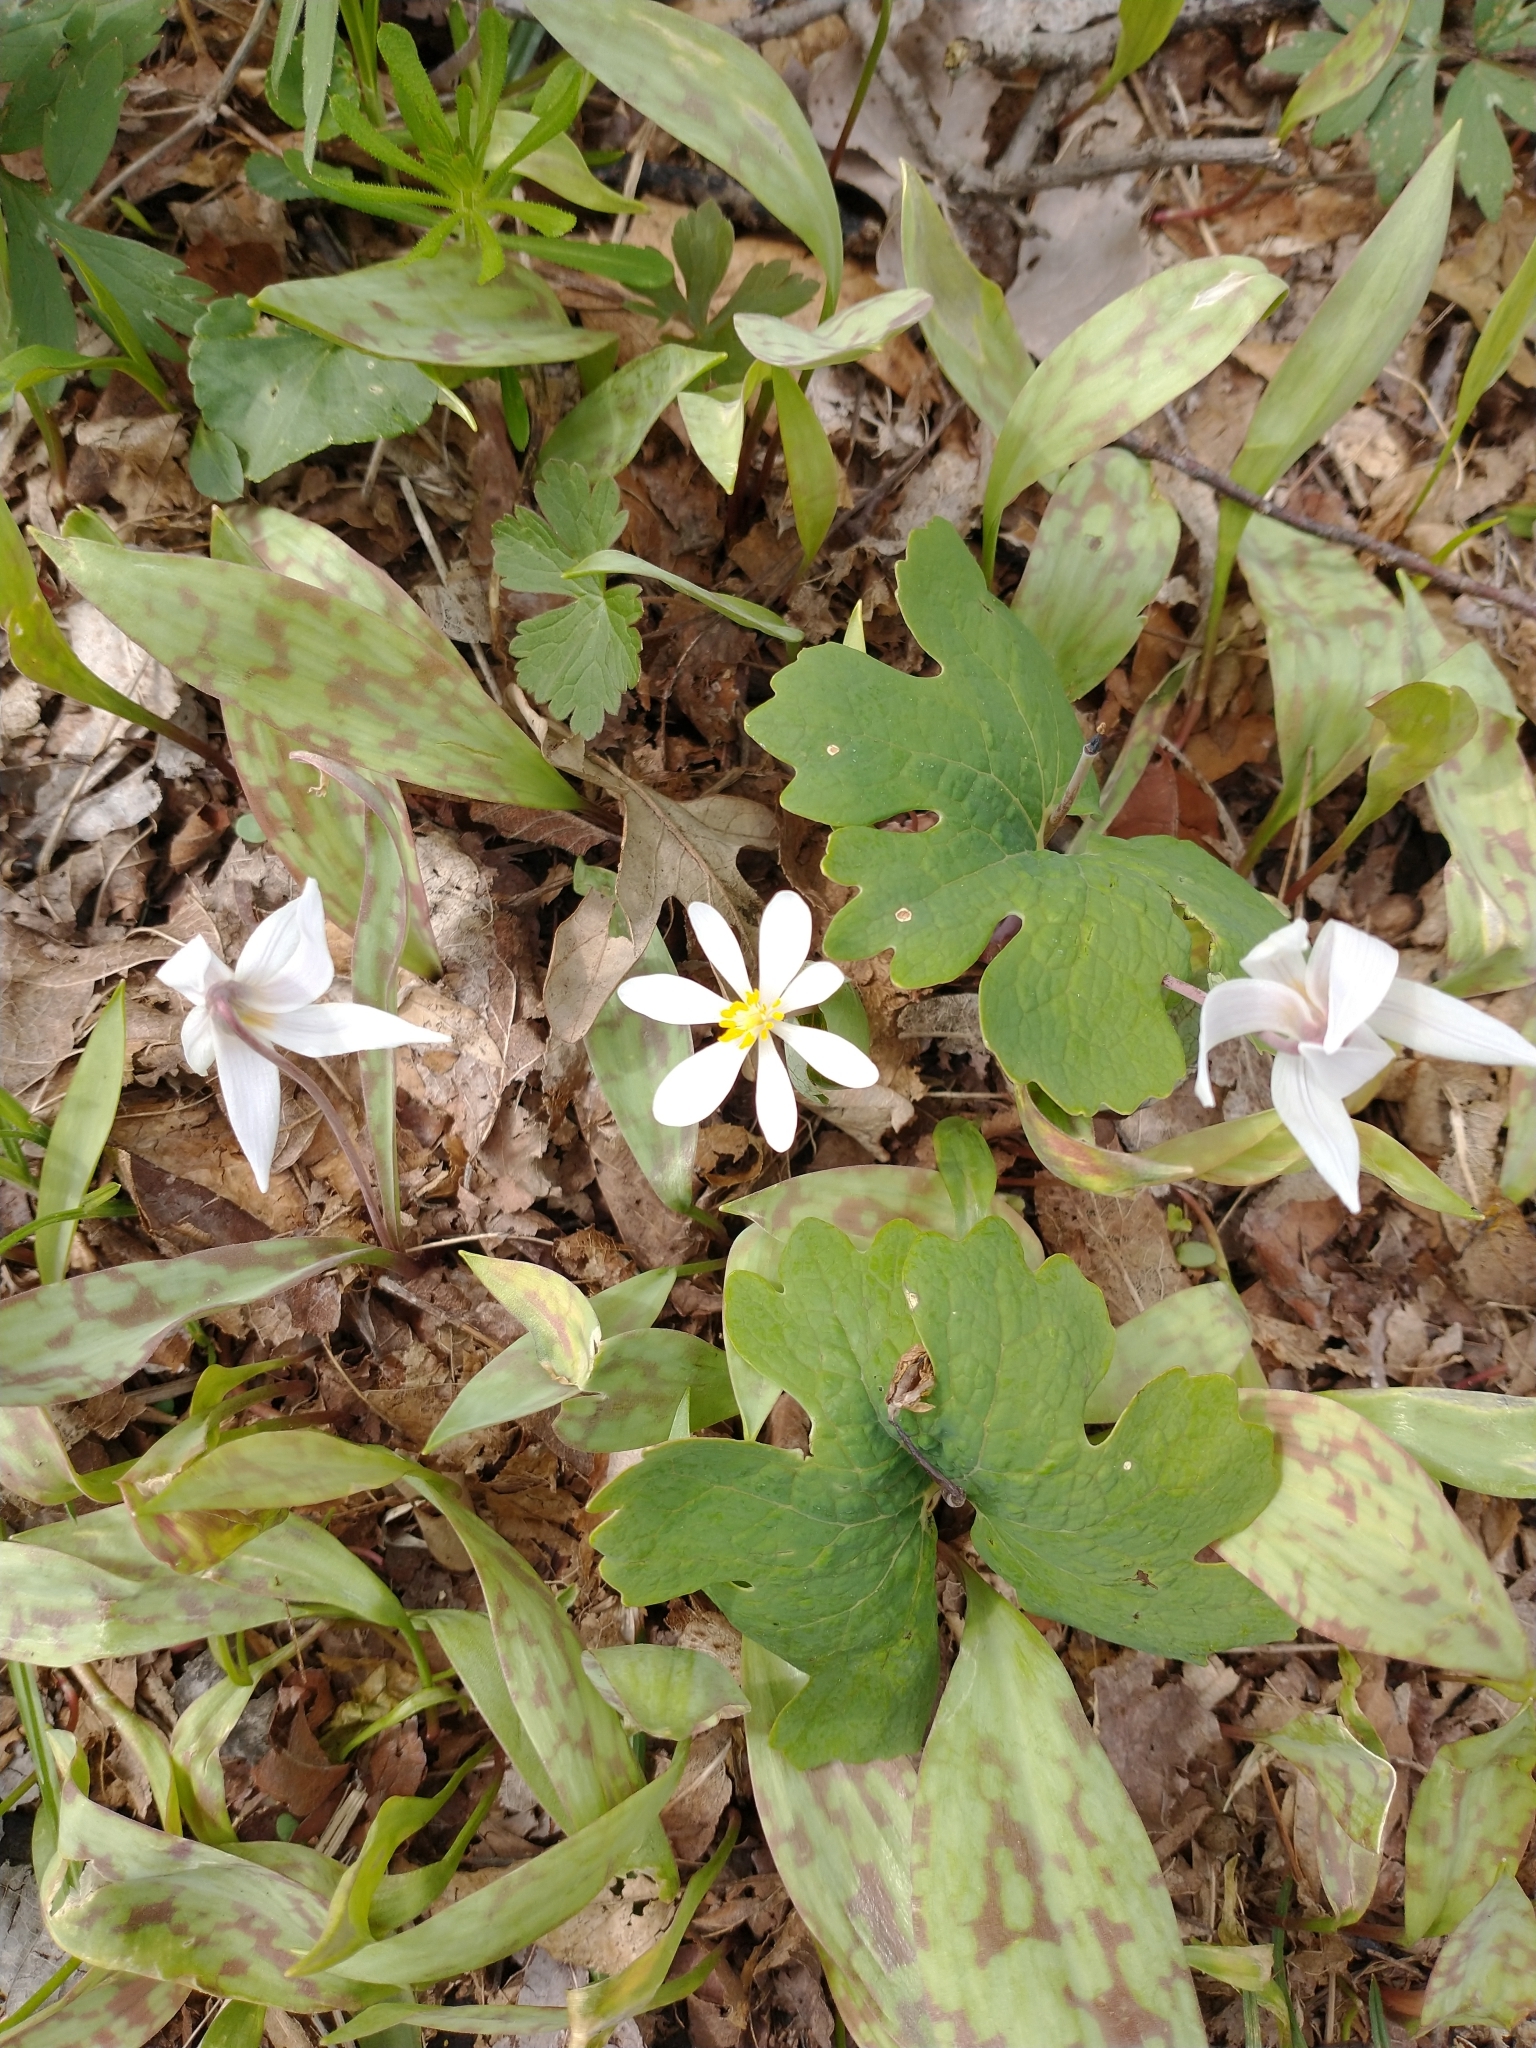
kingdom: Plantae
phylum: Tracheophyta
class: Magnoliopsida
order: Ranunculales
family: Papaveraceae
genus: Sanguinaria
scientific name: Sanguinaria canadensis
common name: Bloodroot
